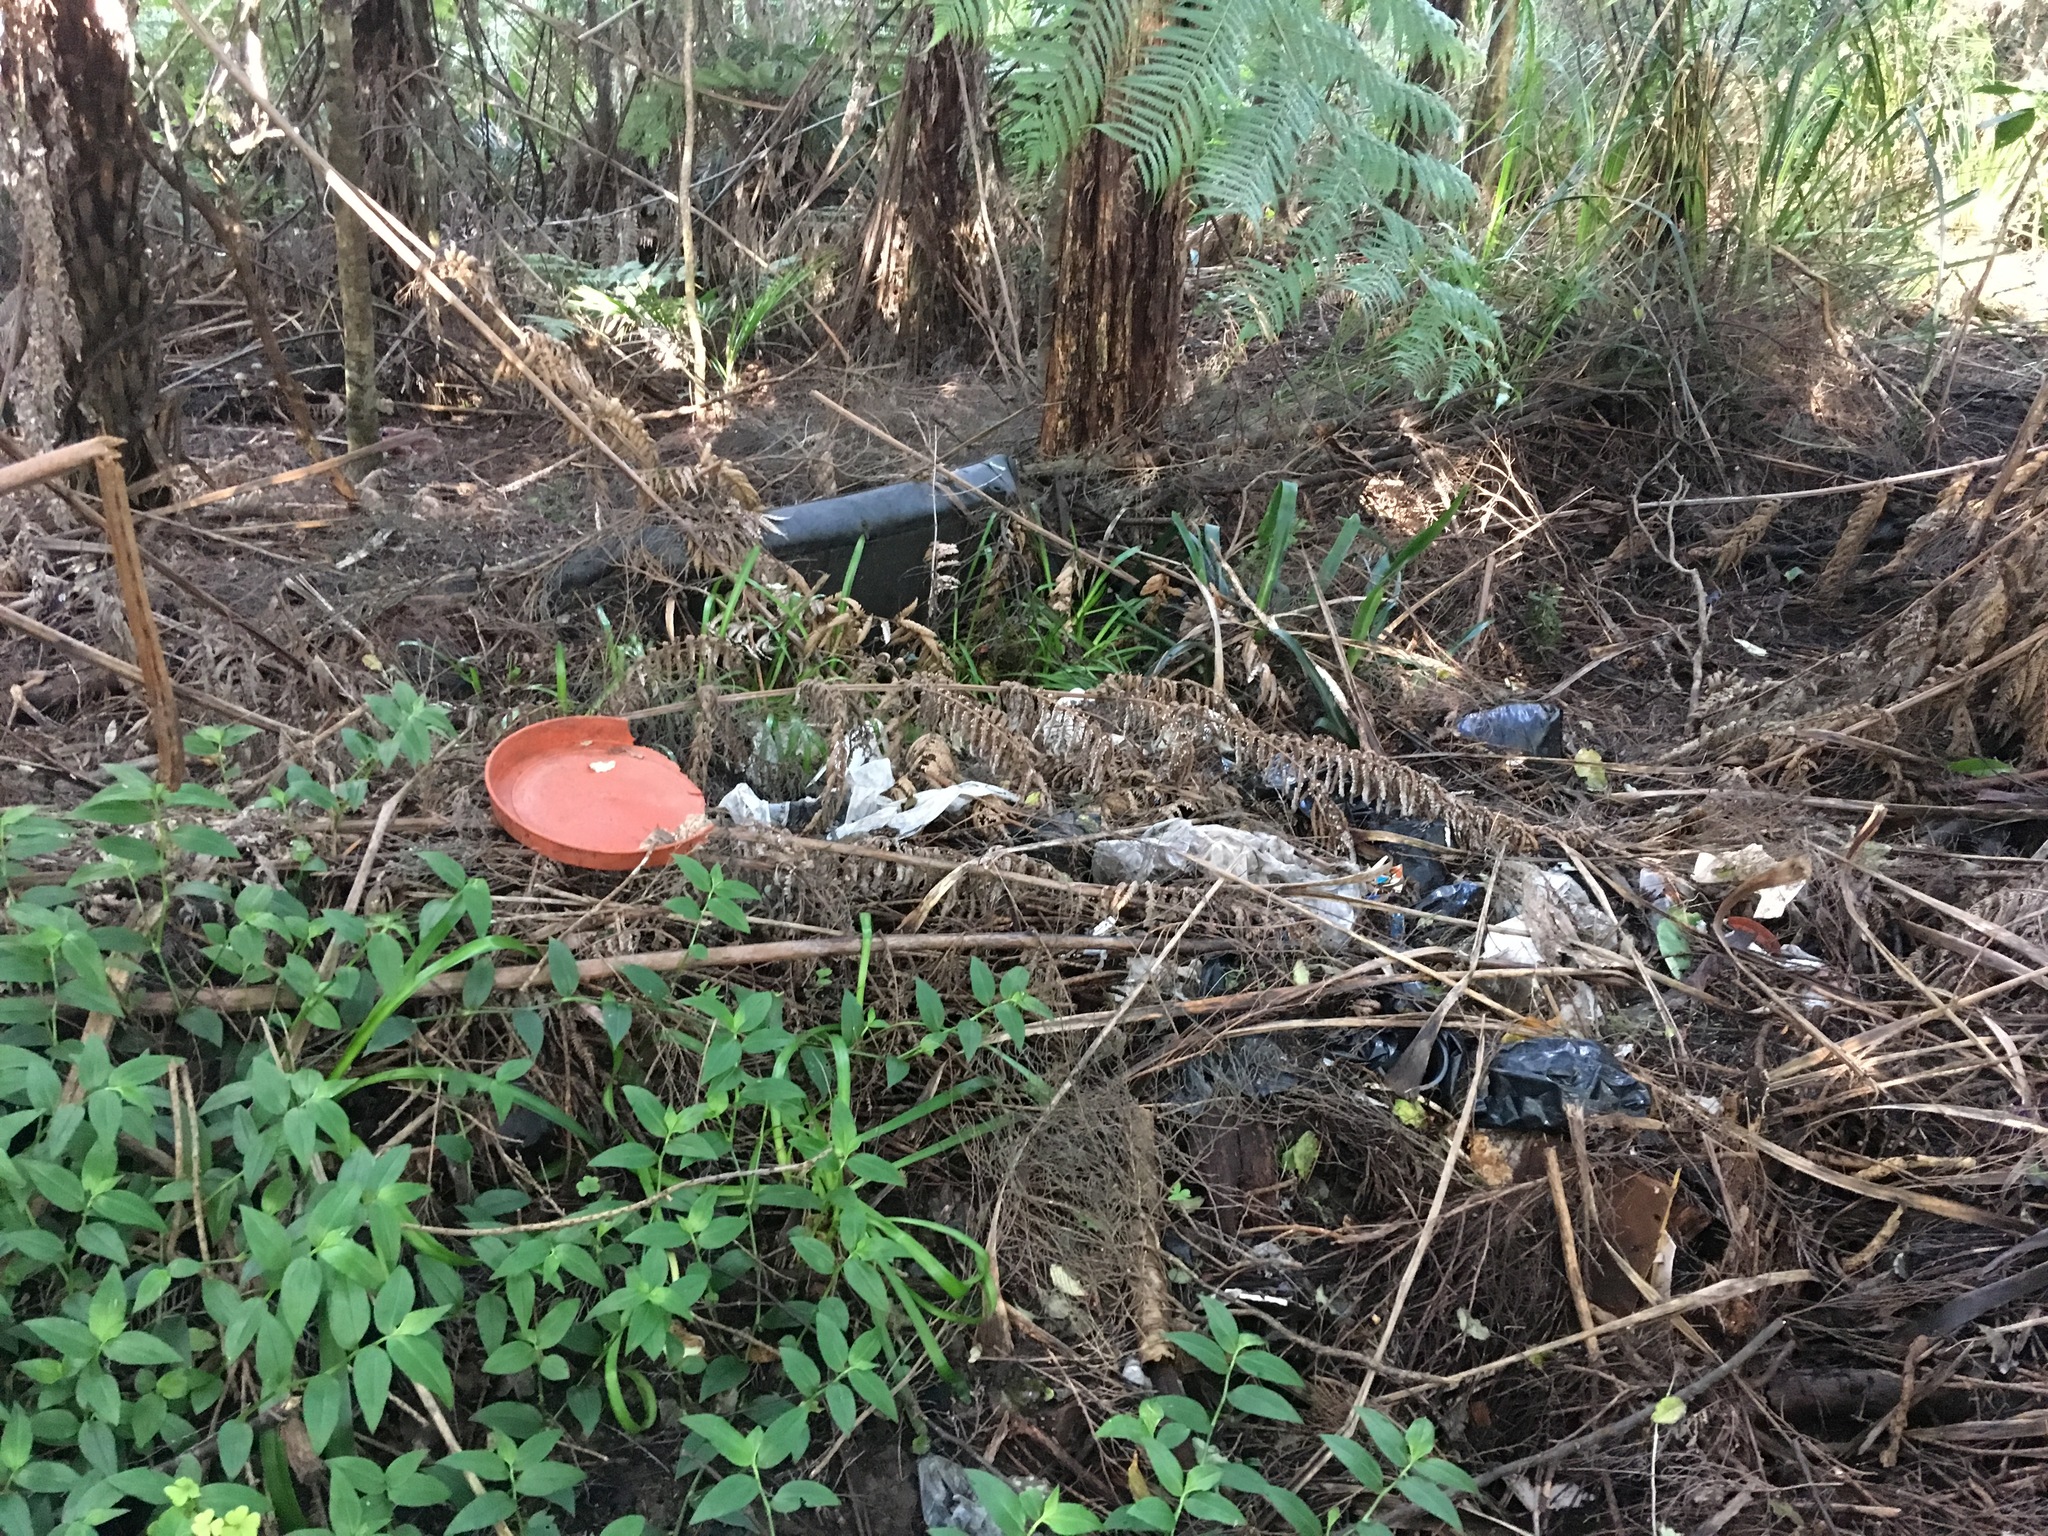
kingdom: Plantae
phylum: Tracheophyta
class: Liliopsida
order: Commelinales
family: Commelinaceae
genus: Tradescantia
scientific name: Tradescantia fluminensis
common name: Wandering-jew
